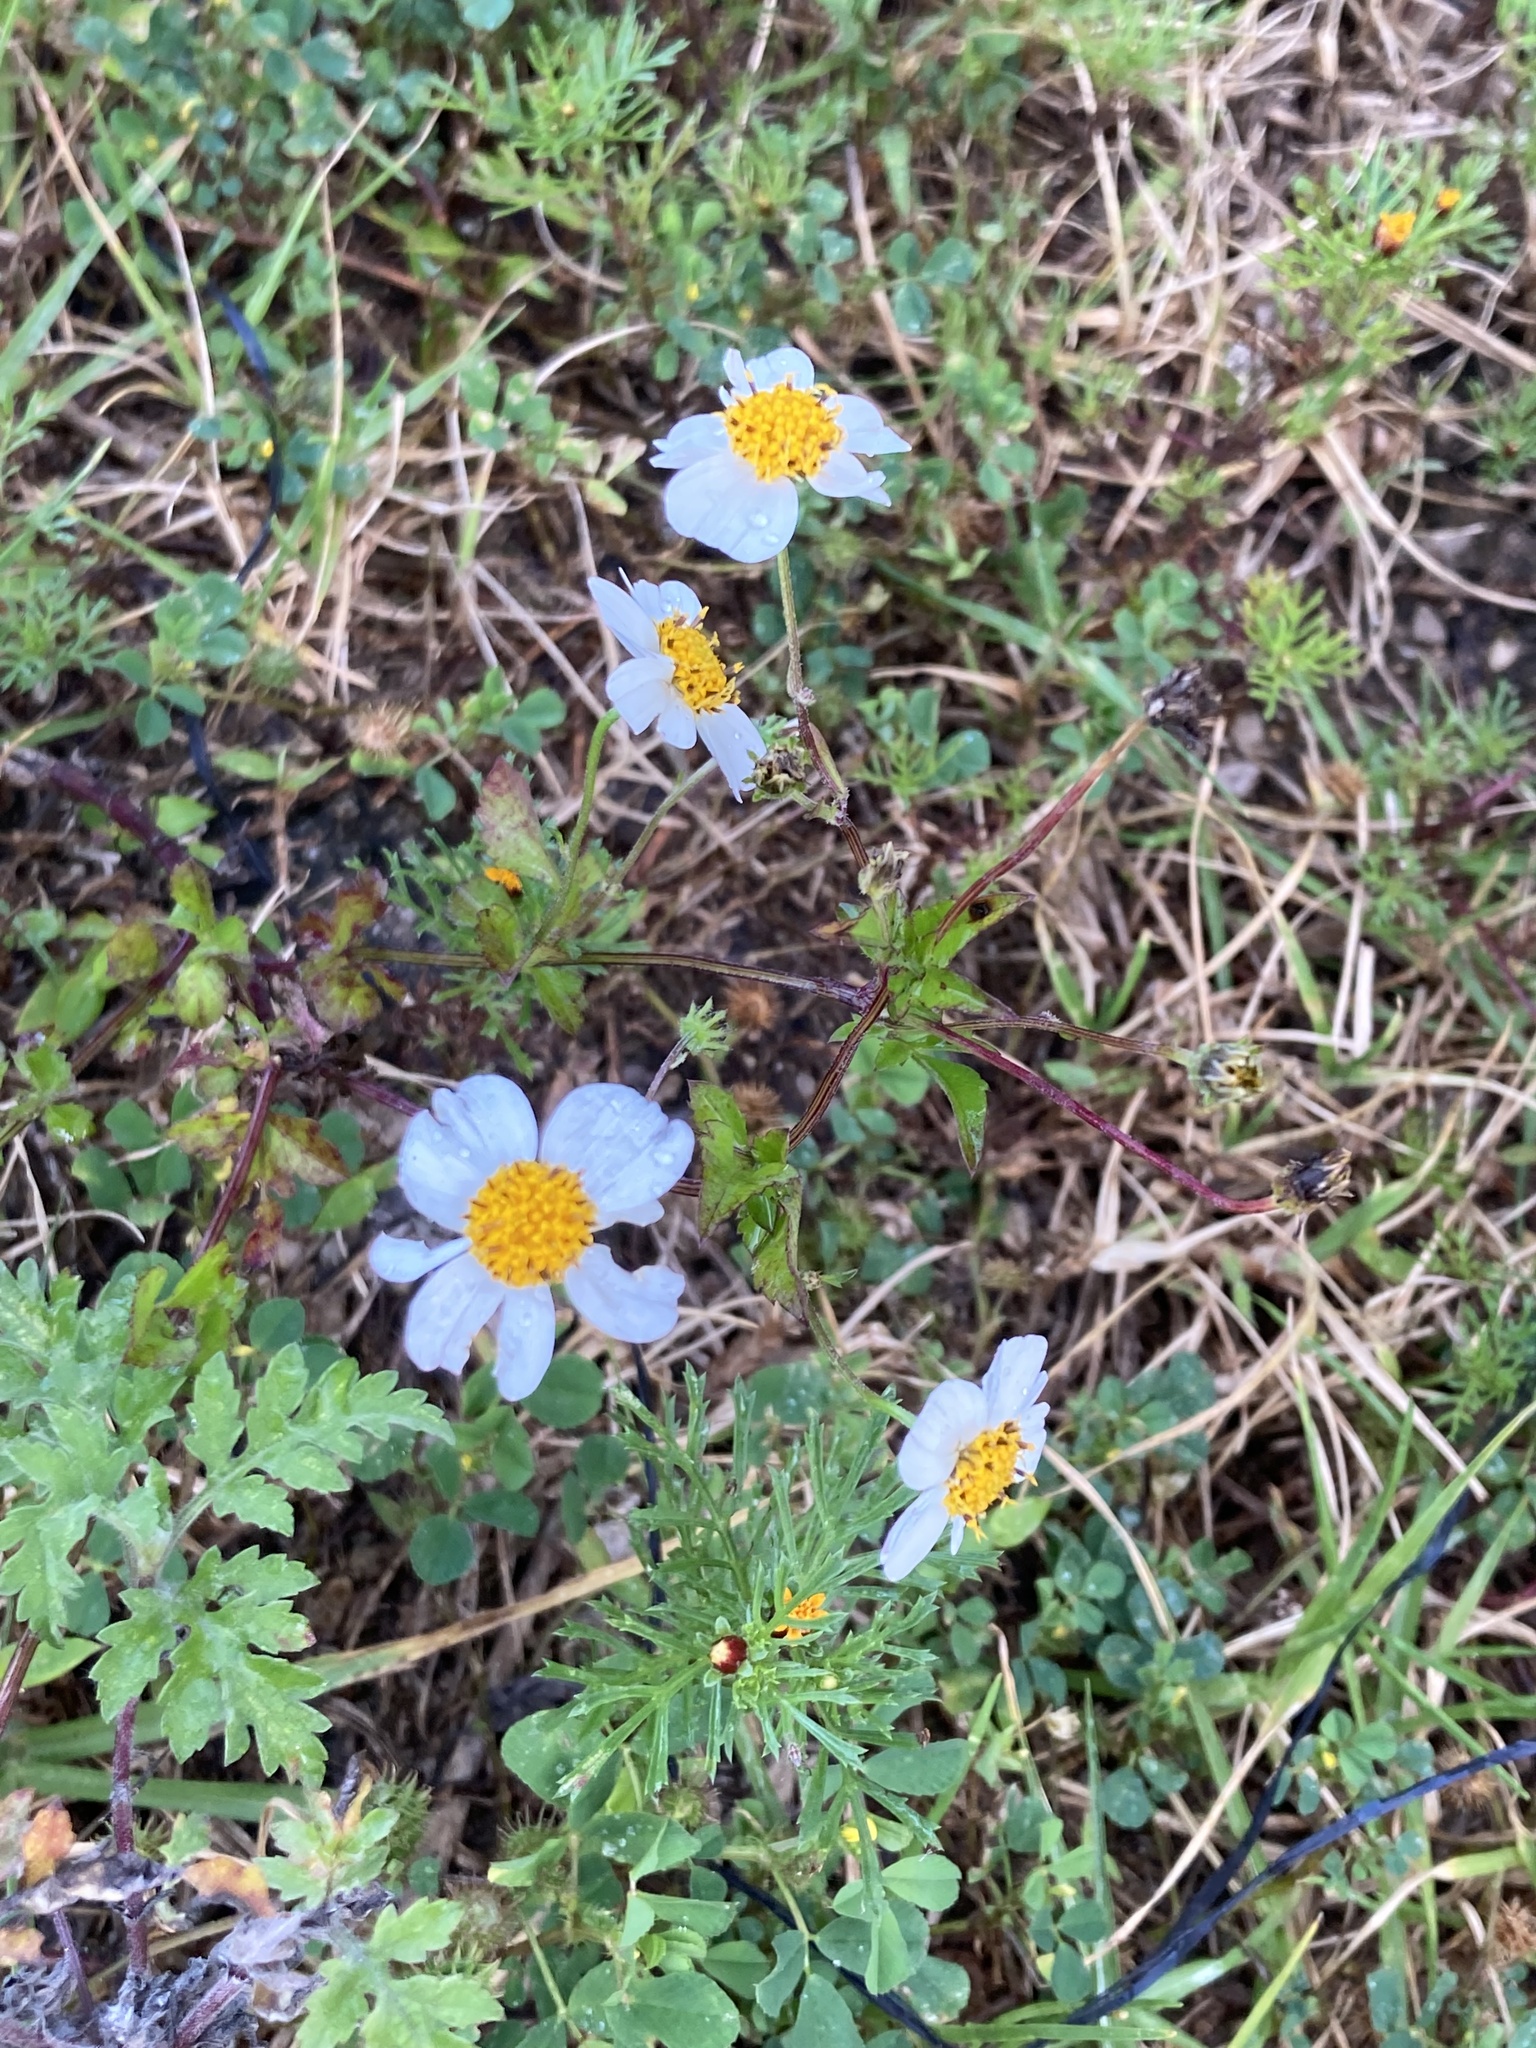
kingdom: Plantae
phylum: Tracheophyta
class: Magnoliopsida
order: Asterales
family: Asteraceae
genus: Bidens
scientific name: Bidens chrysanthemifolia
